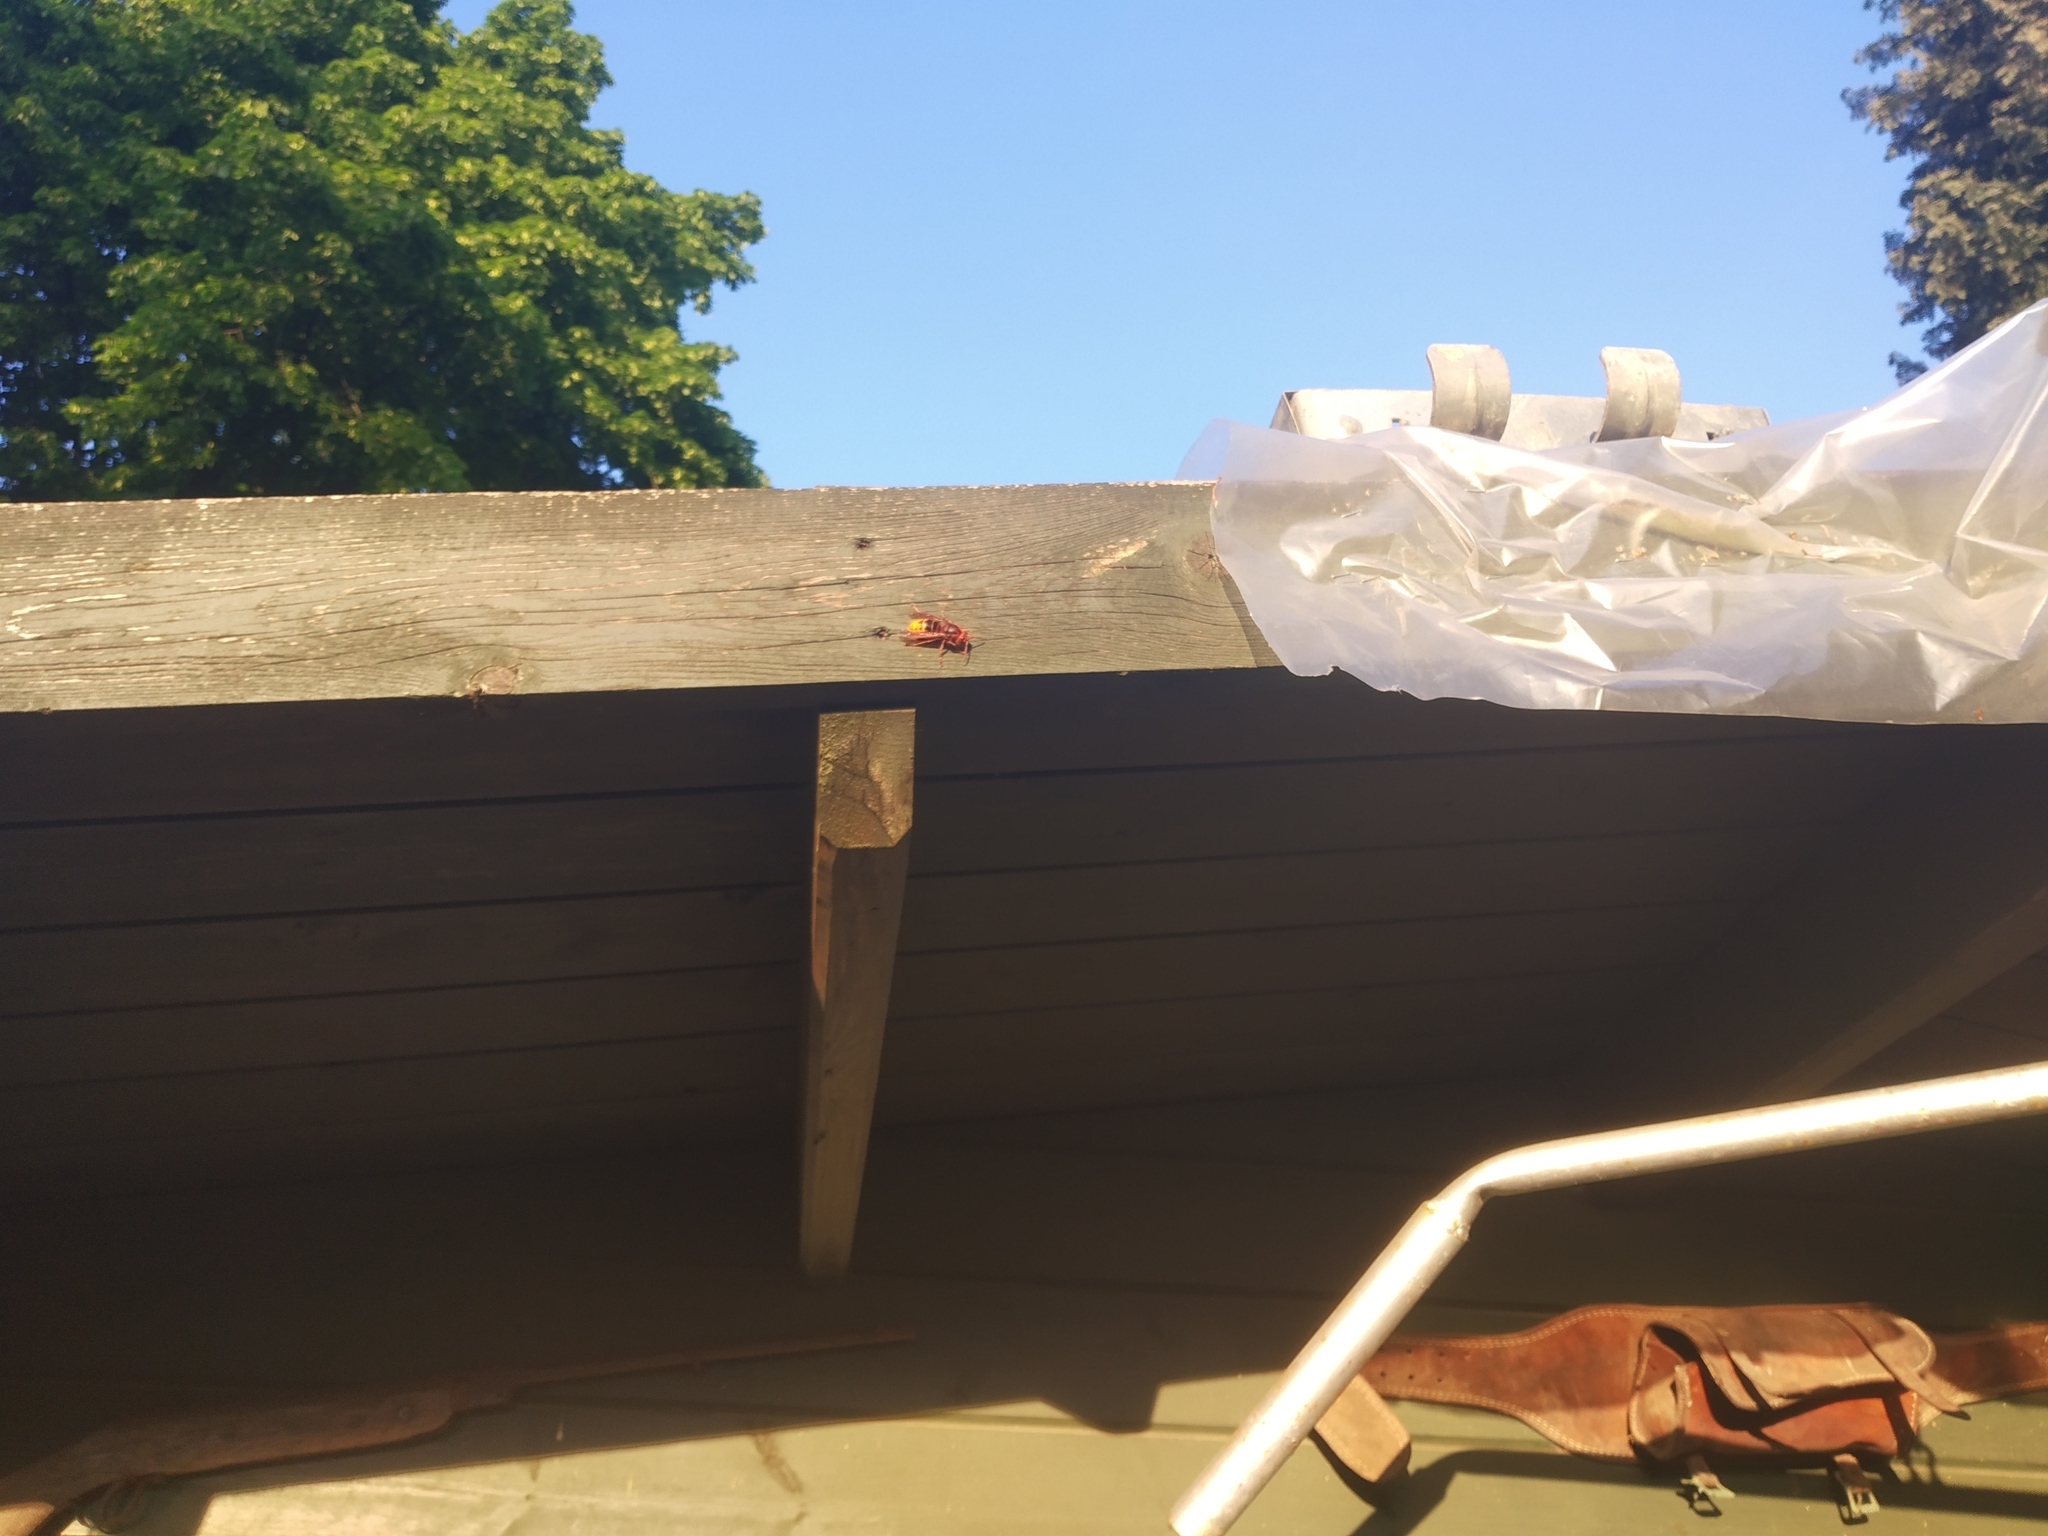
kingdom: Animalia
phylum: Arthropoda
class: Insecta
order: Hymenoptera
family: Vespidae
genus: Vespa
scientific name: Vespa crabro
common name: Hornet
